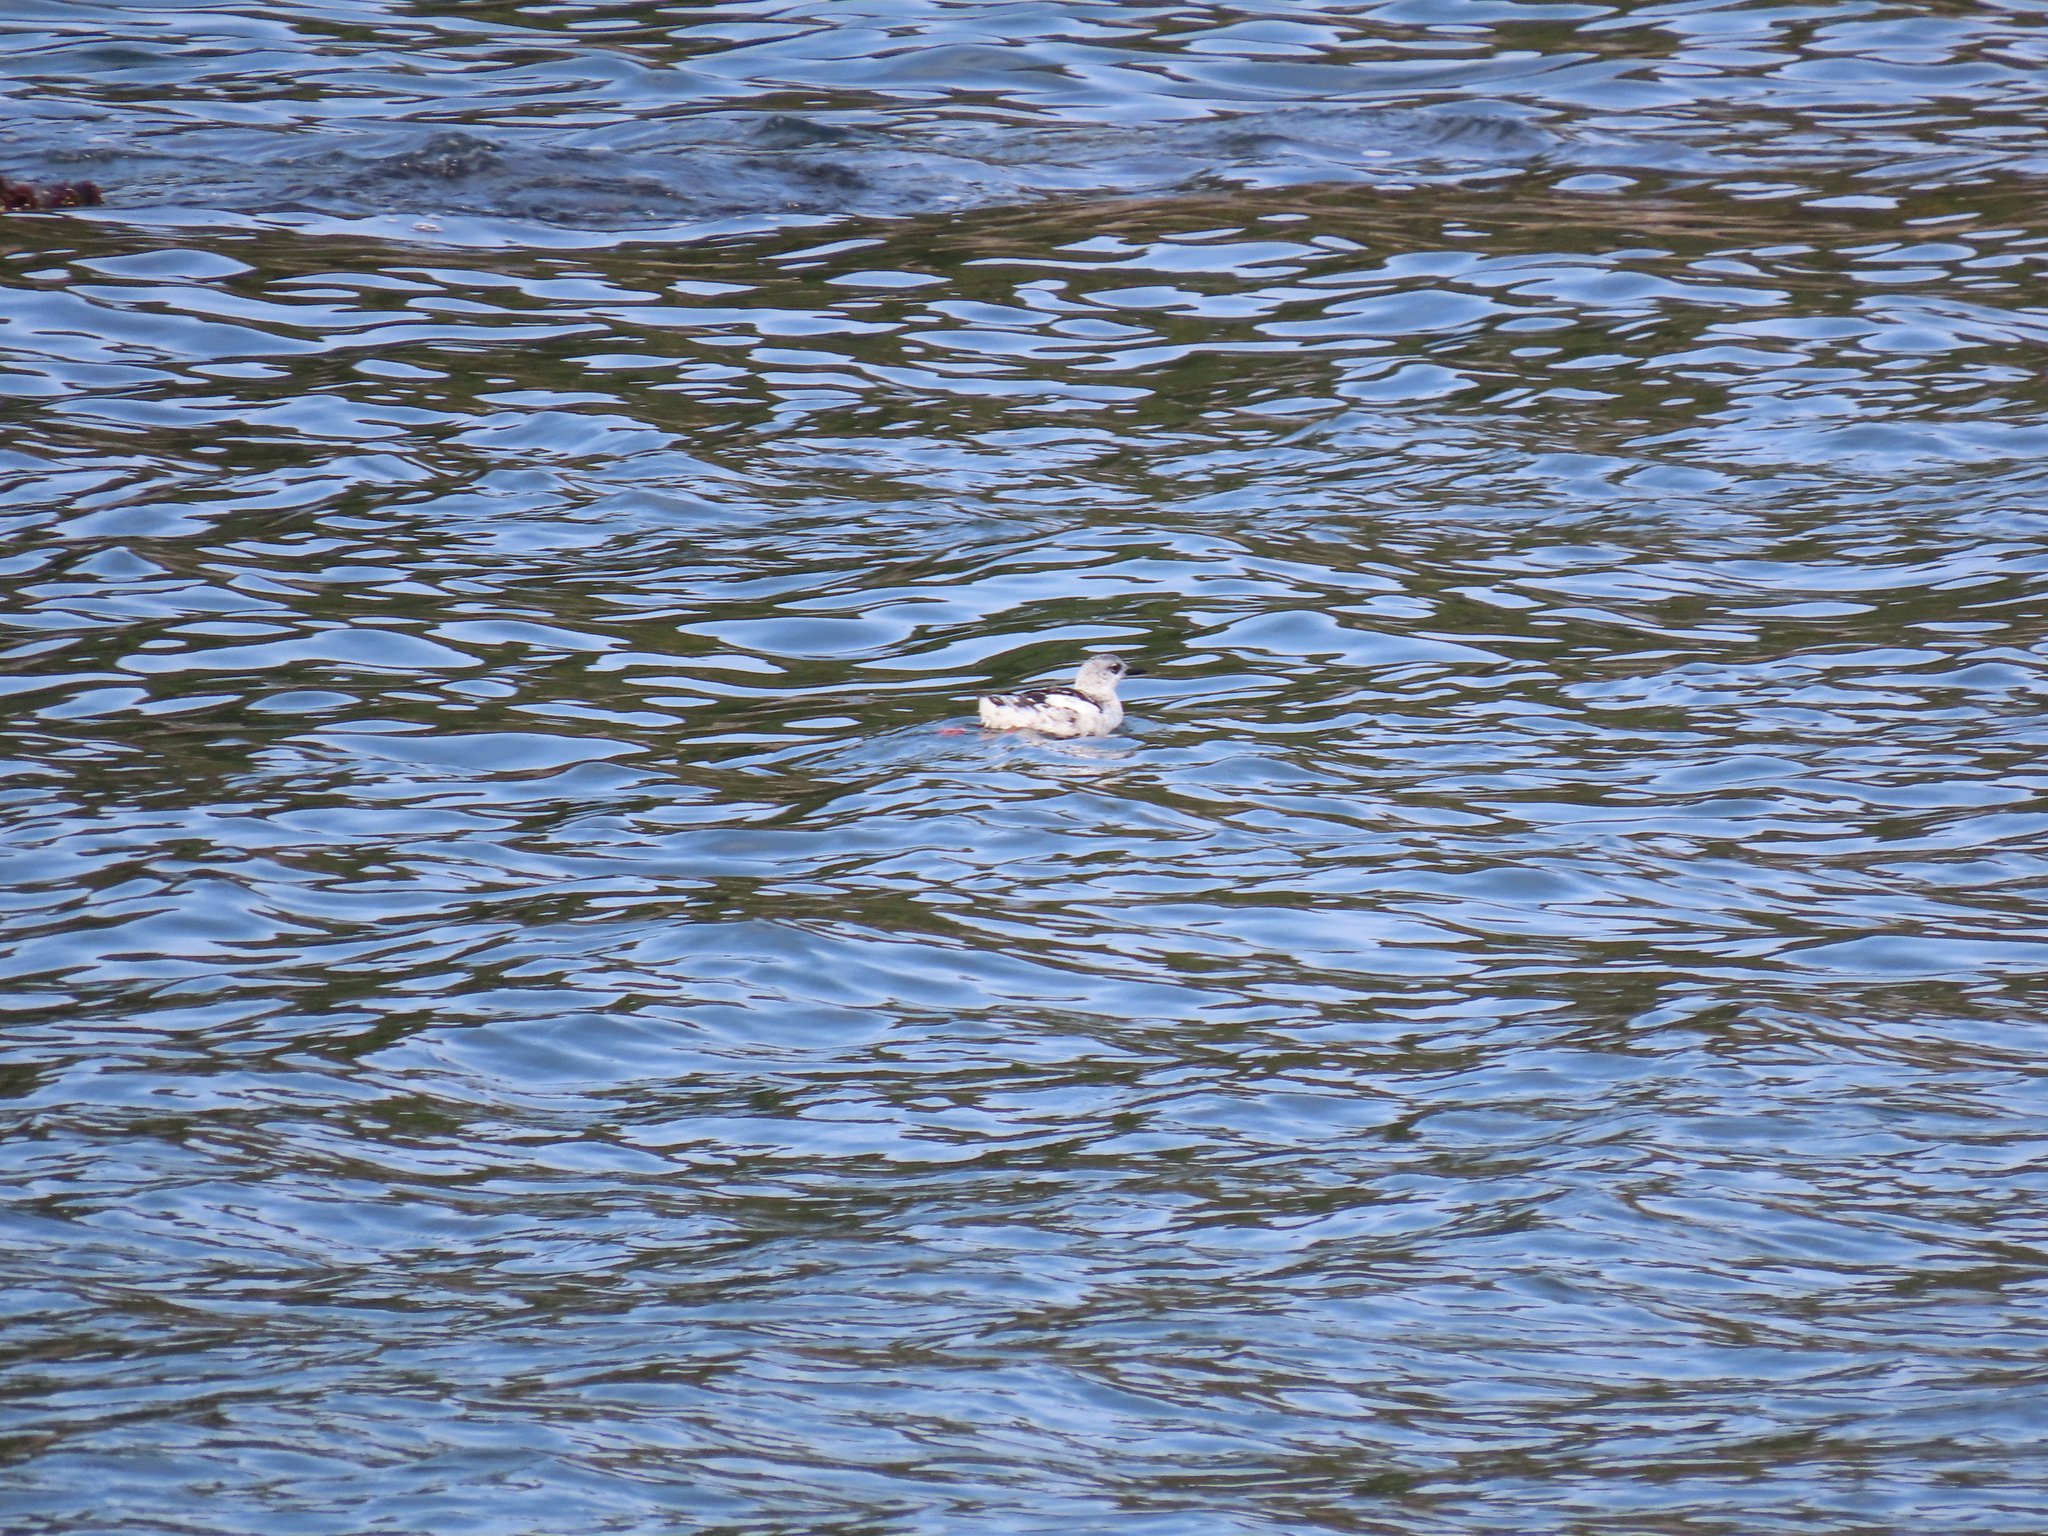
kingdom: Animalia
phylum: Chordata
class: Aves
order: Charadriiformes
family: Alcidae
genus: Cepphus
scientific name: Cepphus grylle
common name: Black guillemot
